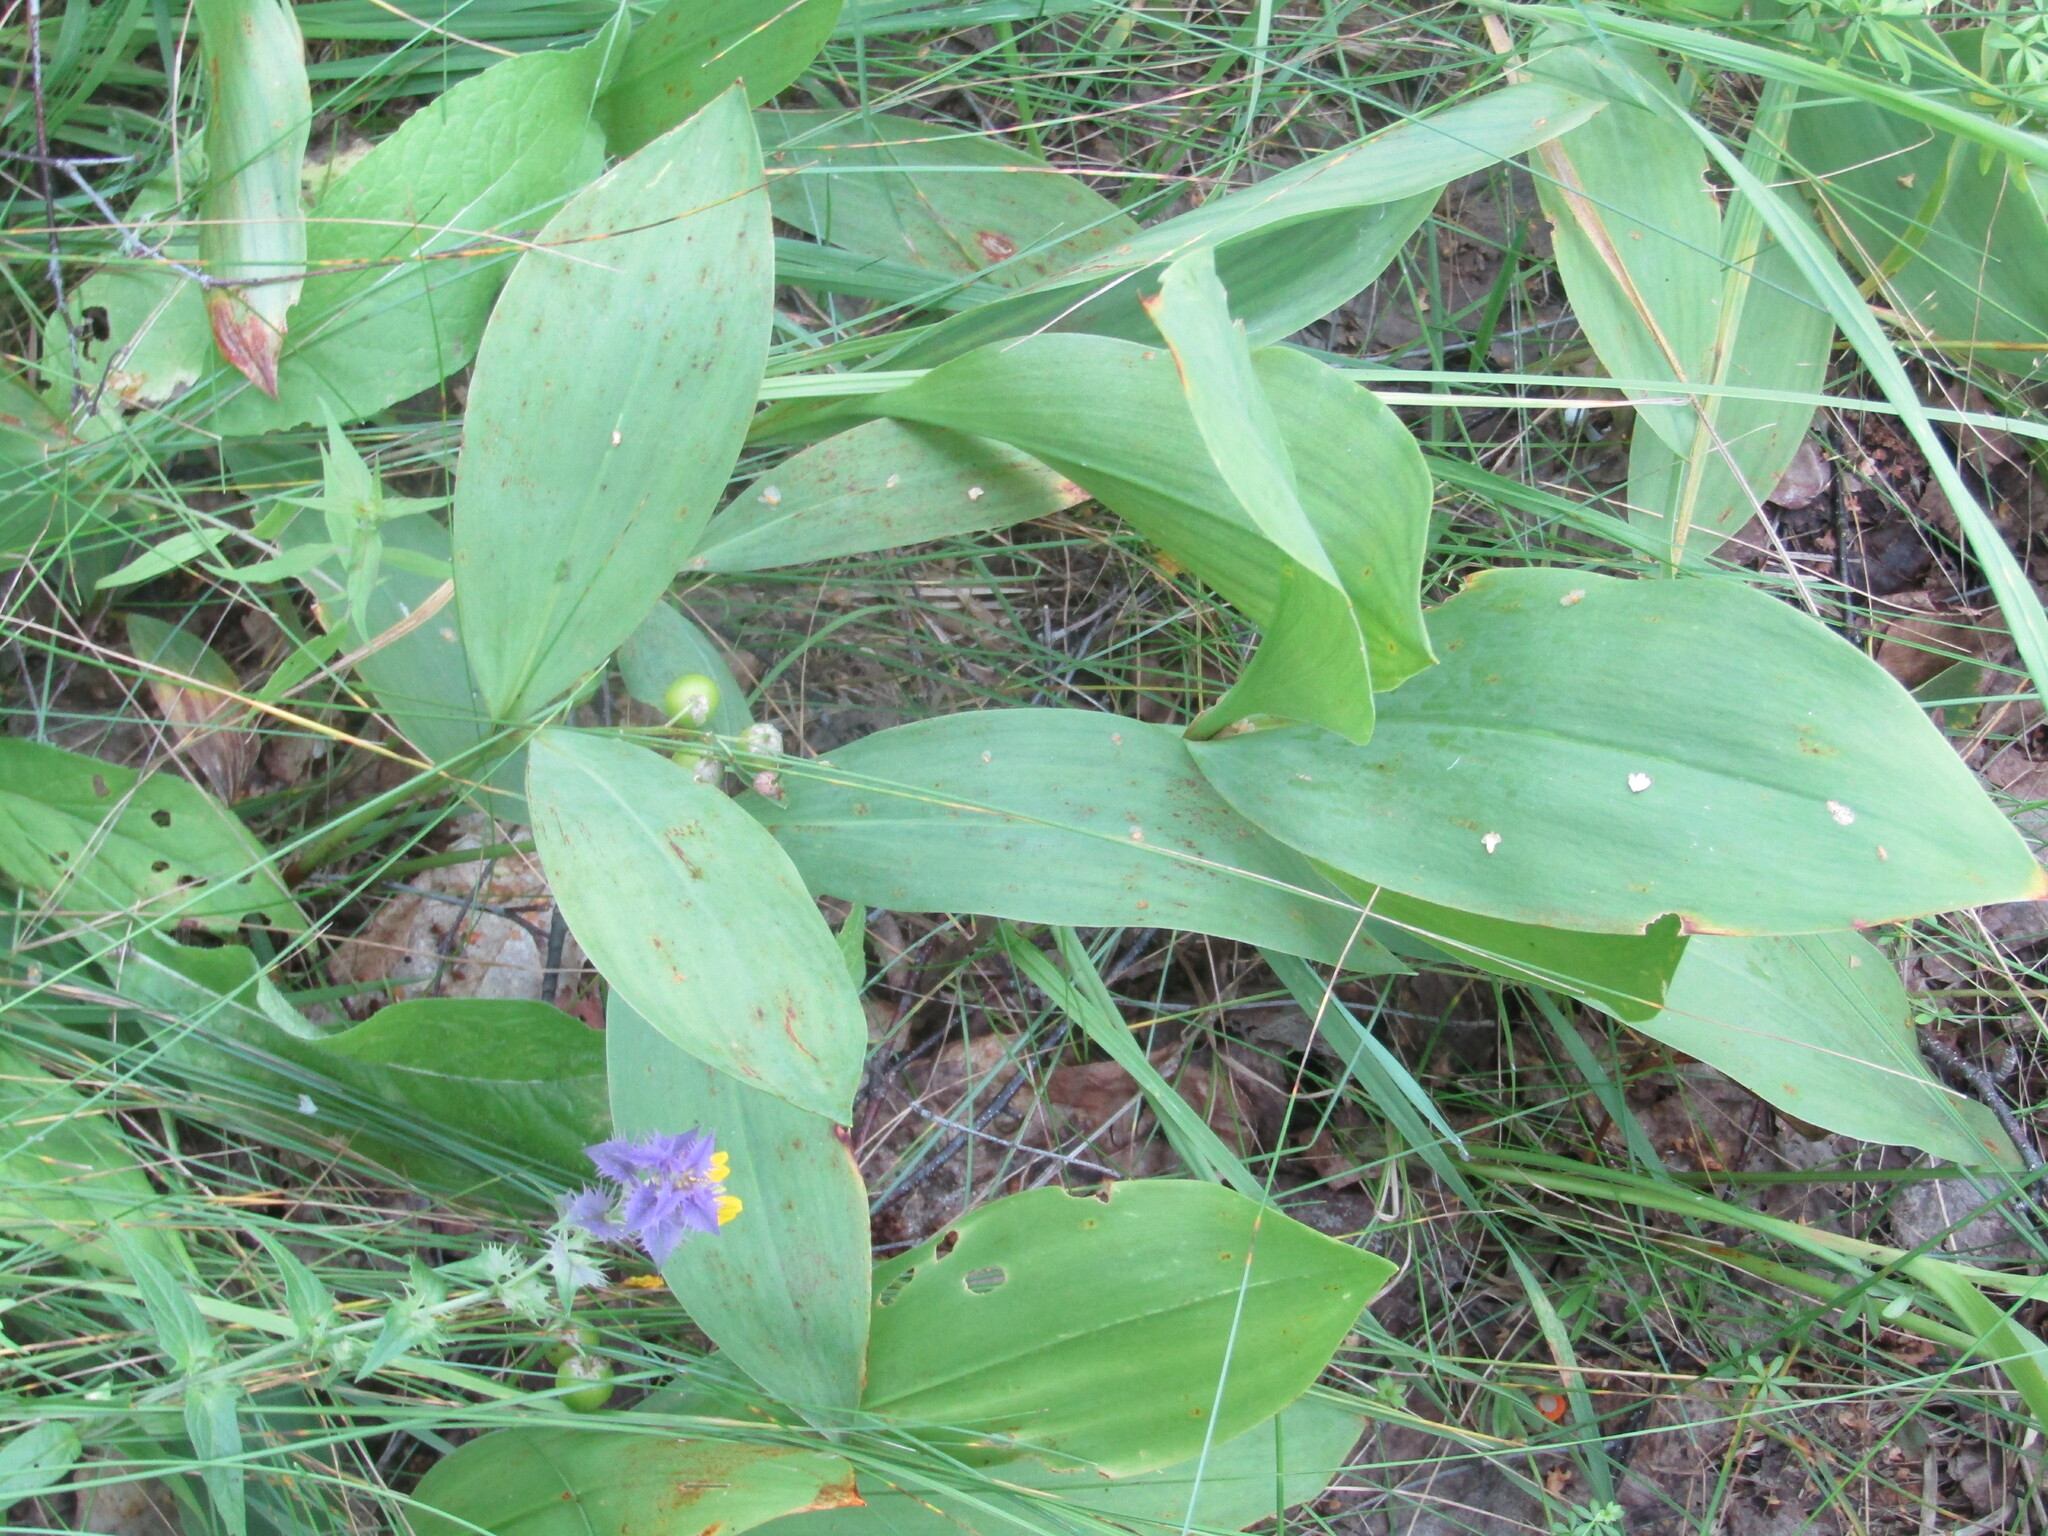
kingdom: Plantae
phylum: Tracheophyta
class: Liliopsida
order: Asparagales
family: Asparagaceae
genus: Convallaria
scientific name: Convallaria majalis
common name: Lily-of-the-valley
